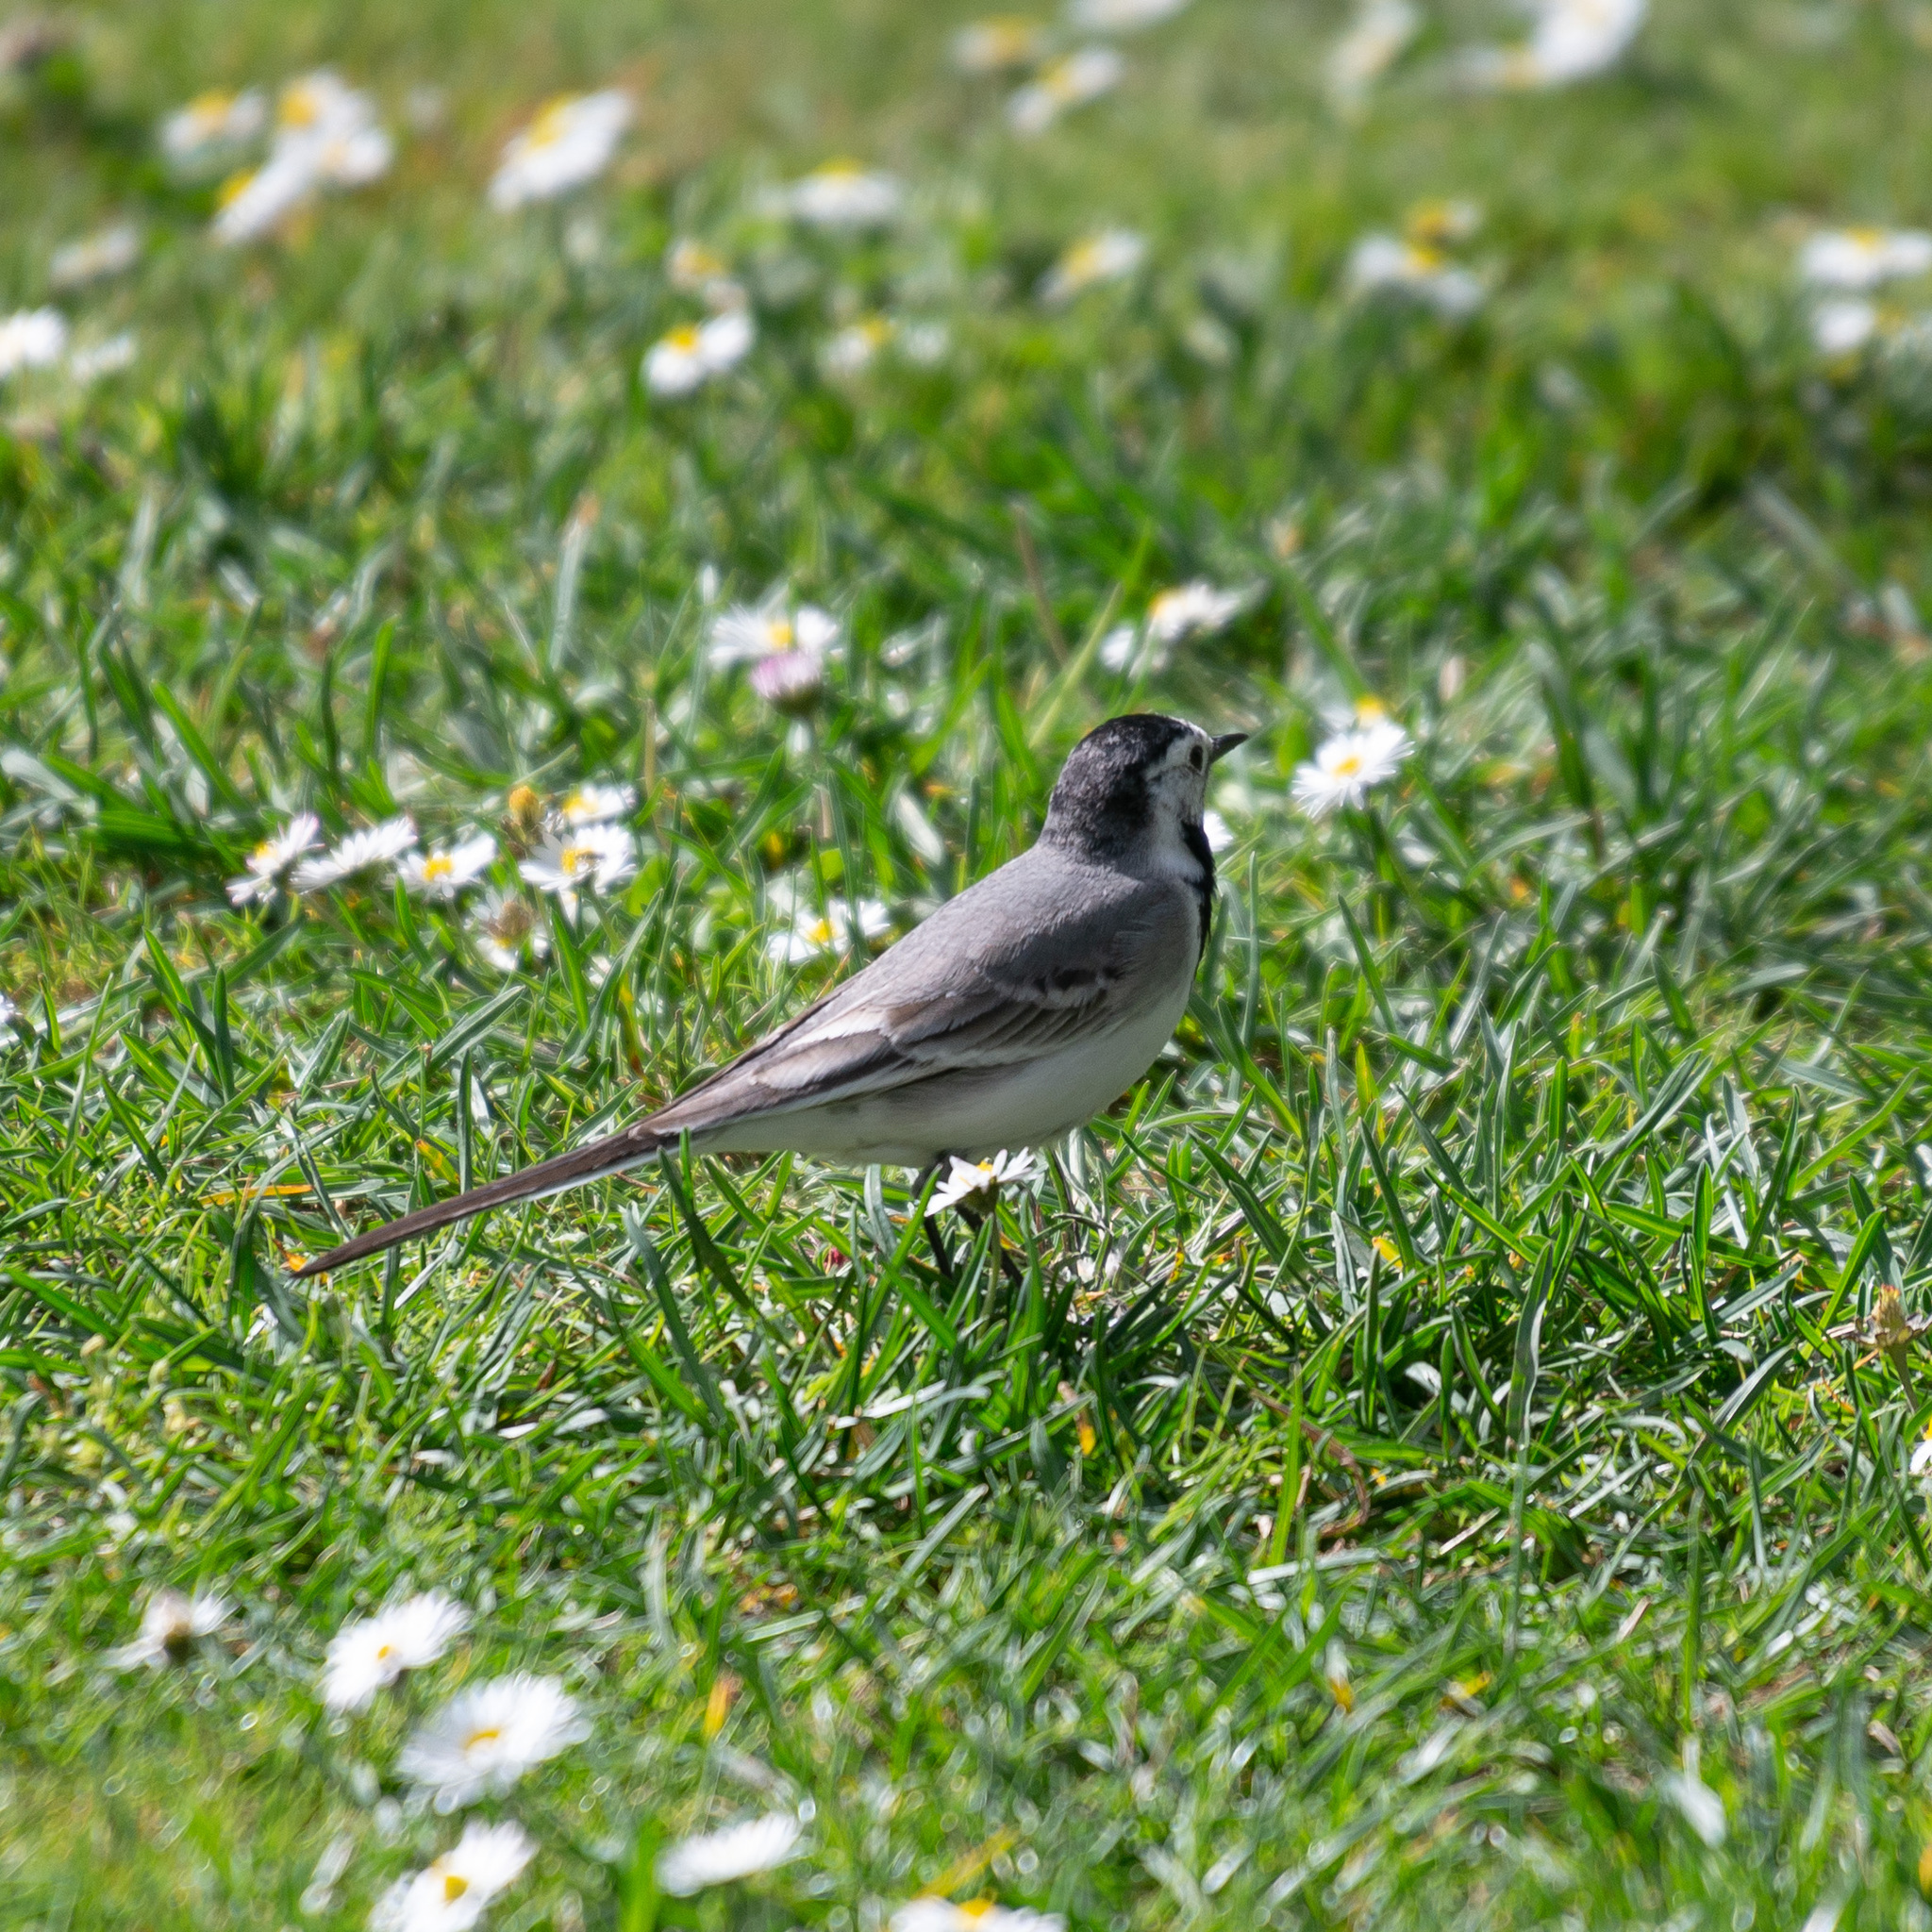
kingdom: Animalia
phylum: Chordata
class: Aves
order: Passeriformes
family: Motacillidae
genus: Motacilla
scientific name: Motacilla alba
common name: White wagtail
